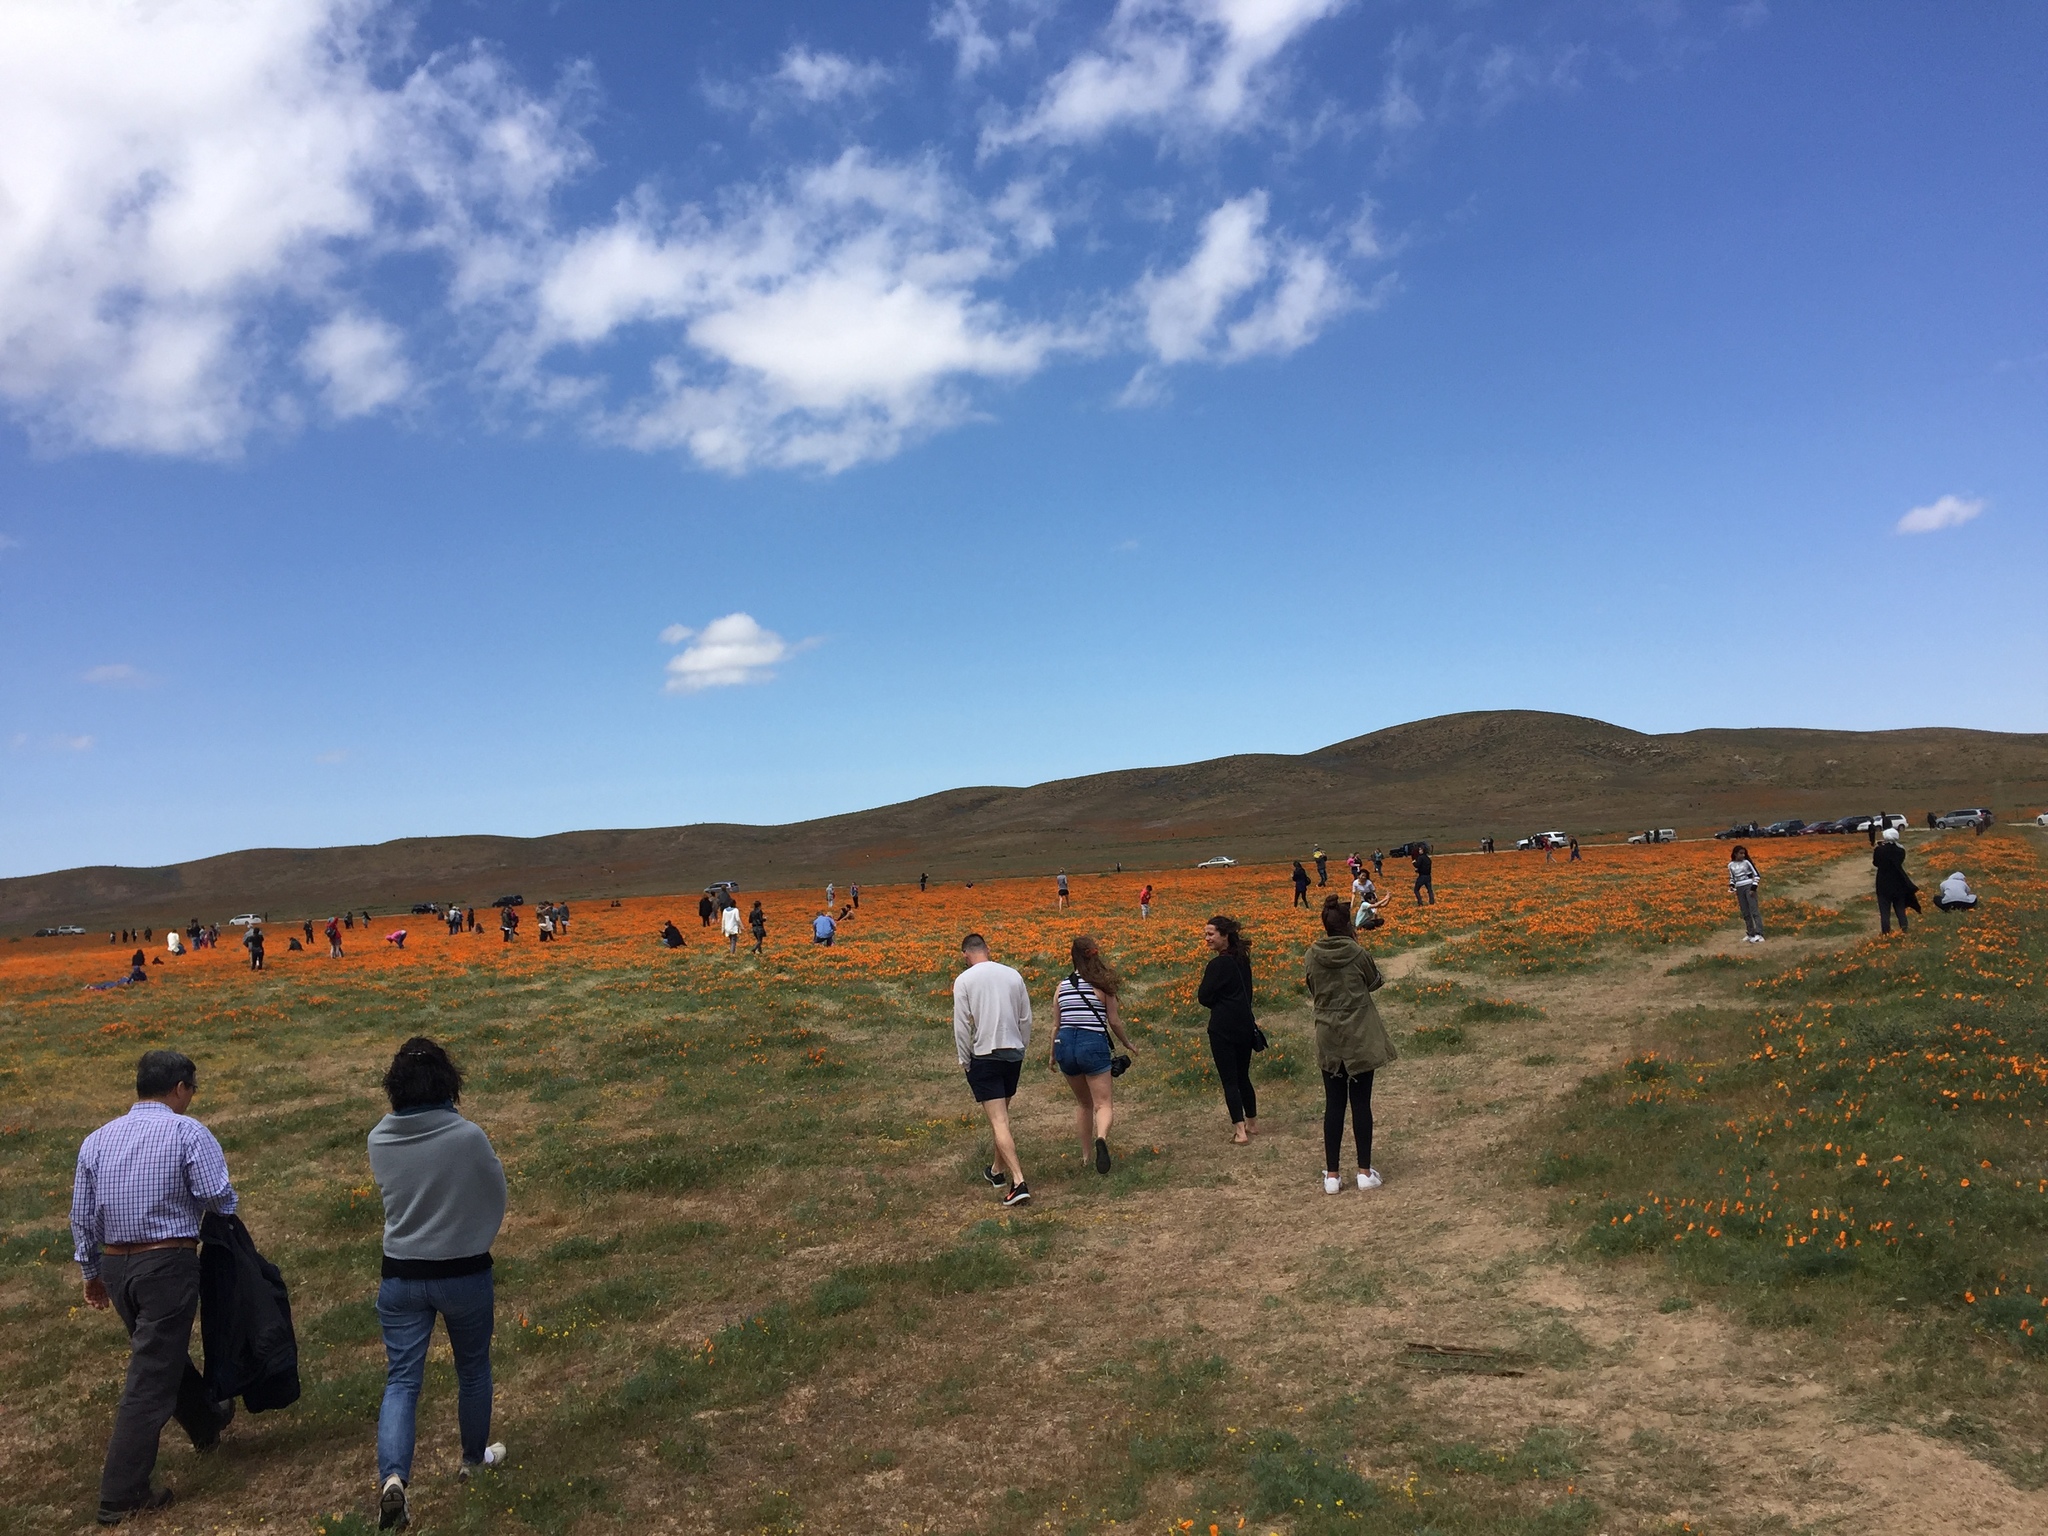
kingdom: Plantae
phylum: Tracheophyta
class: Magnoliopsida
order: Ranunculales
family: Papaveraceae
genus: Eschscholzia
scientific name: Eschscholzia californica
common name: California poppy
